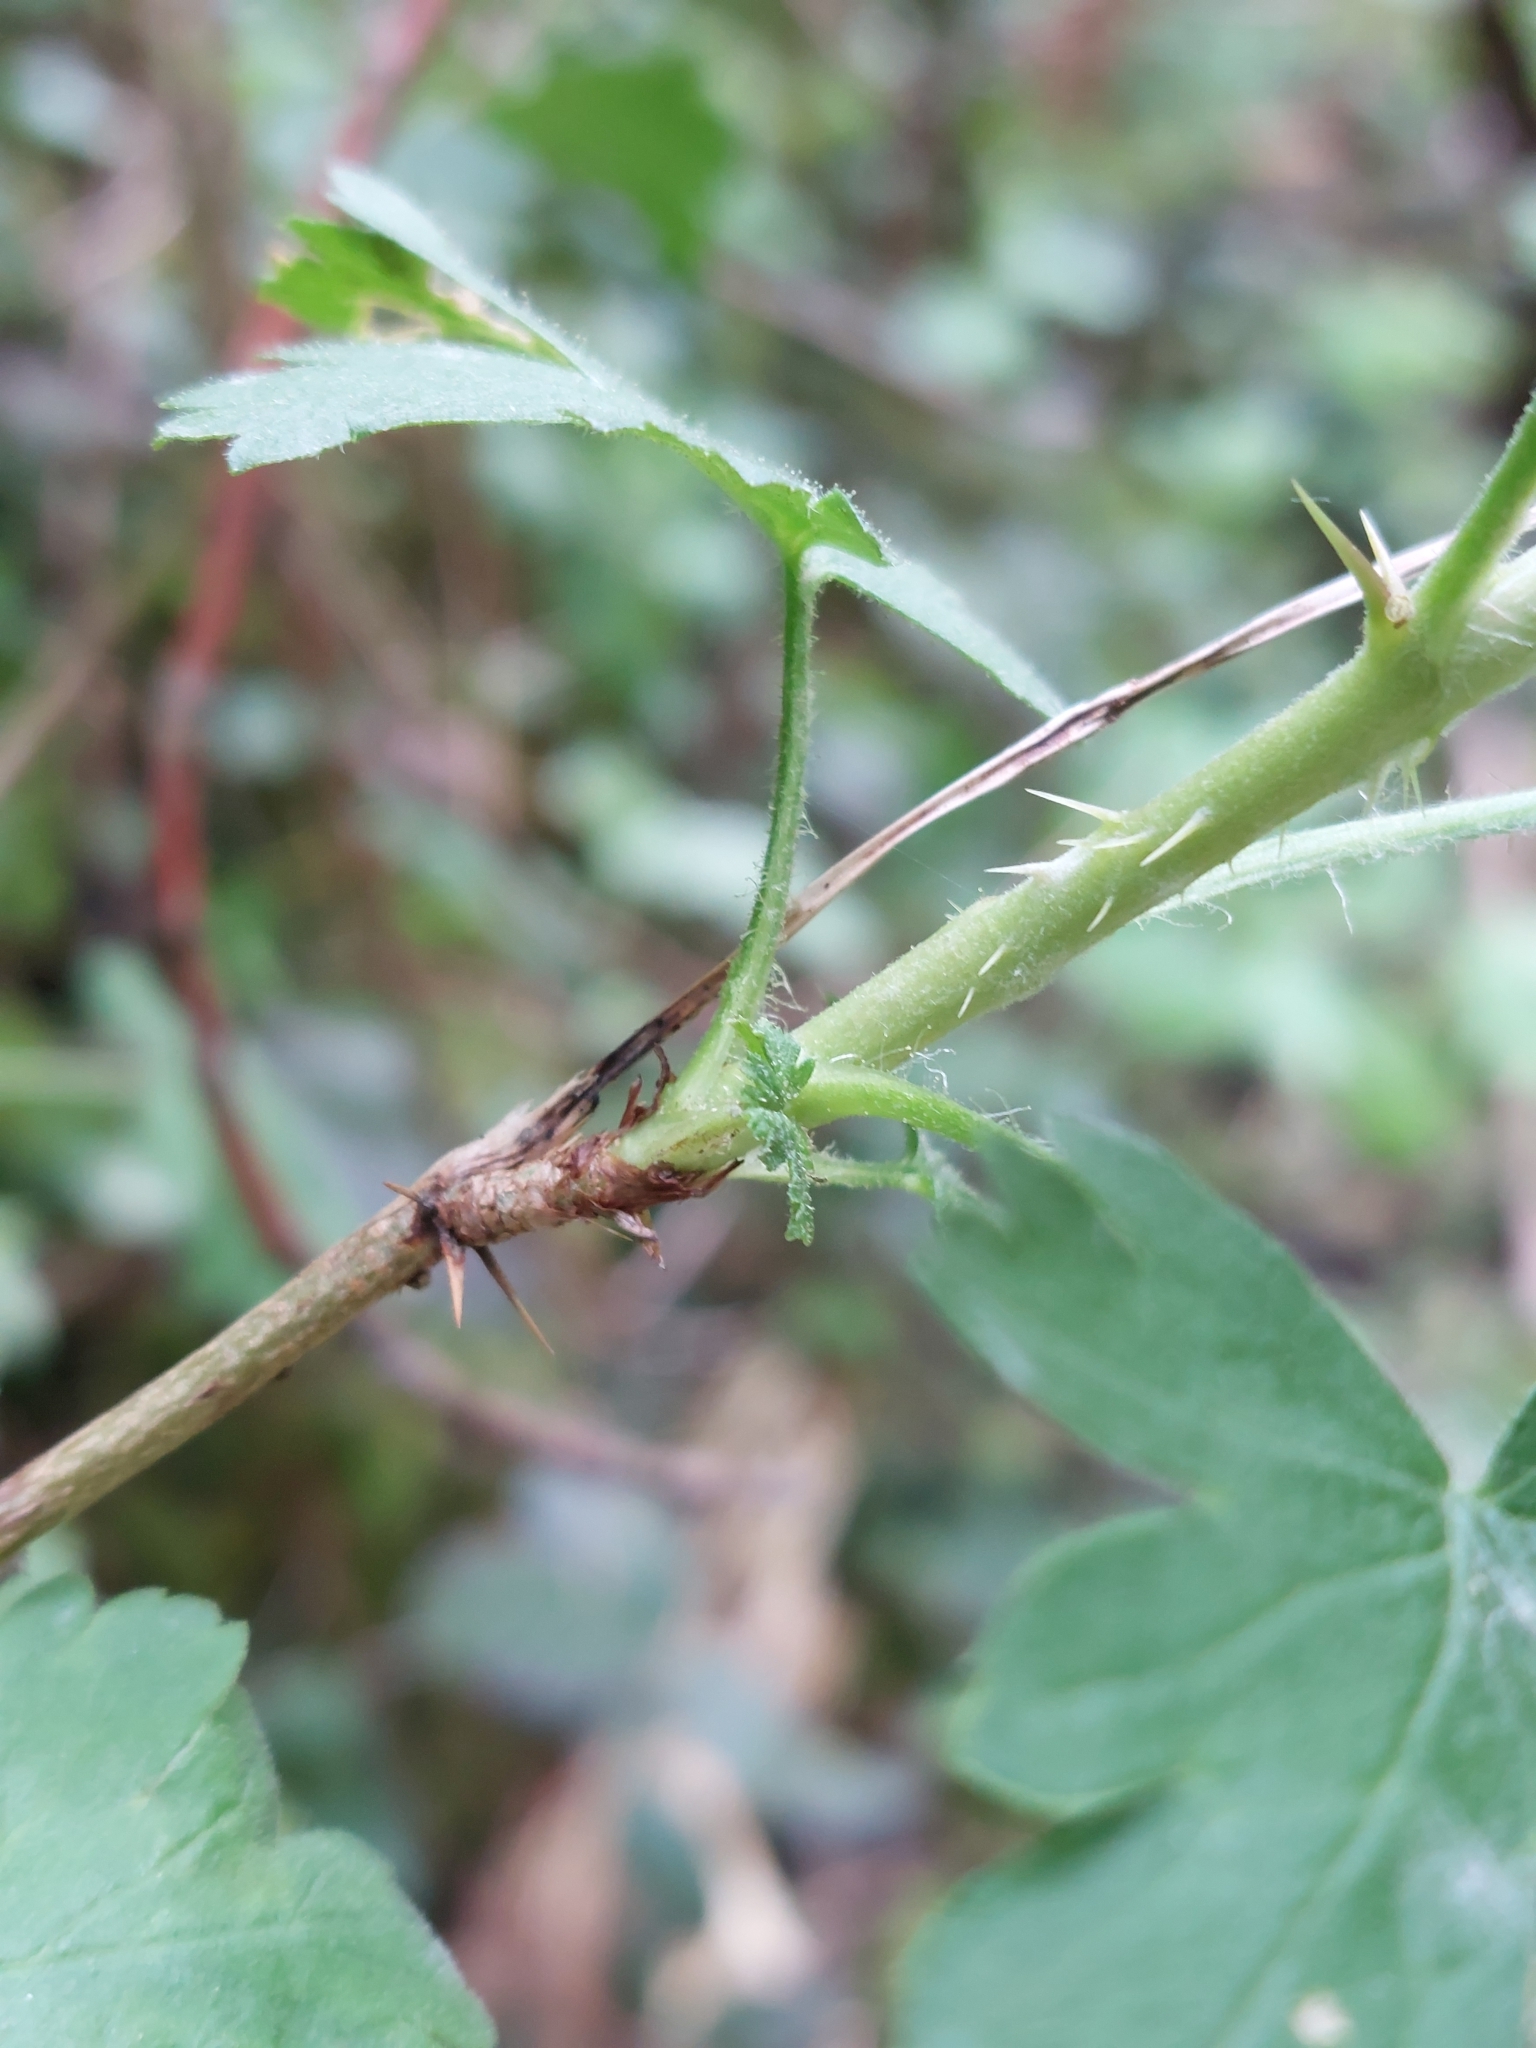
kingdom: Plantae
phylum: Tracheophyta
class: Magnoliopsida
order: Saxifragales
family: Grossulariaceae
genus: Ribes
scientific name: Ribes uva-crispa
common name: Gooseberry
